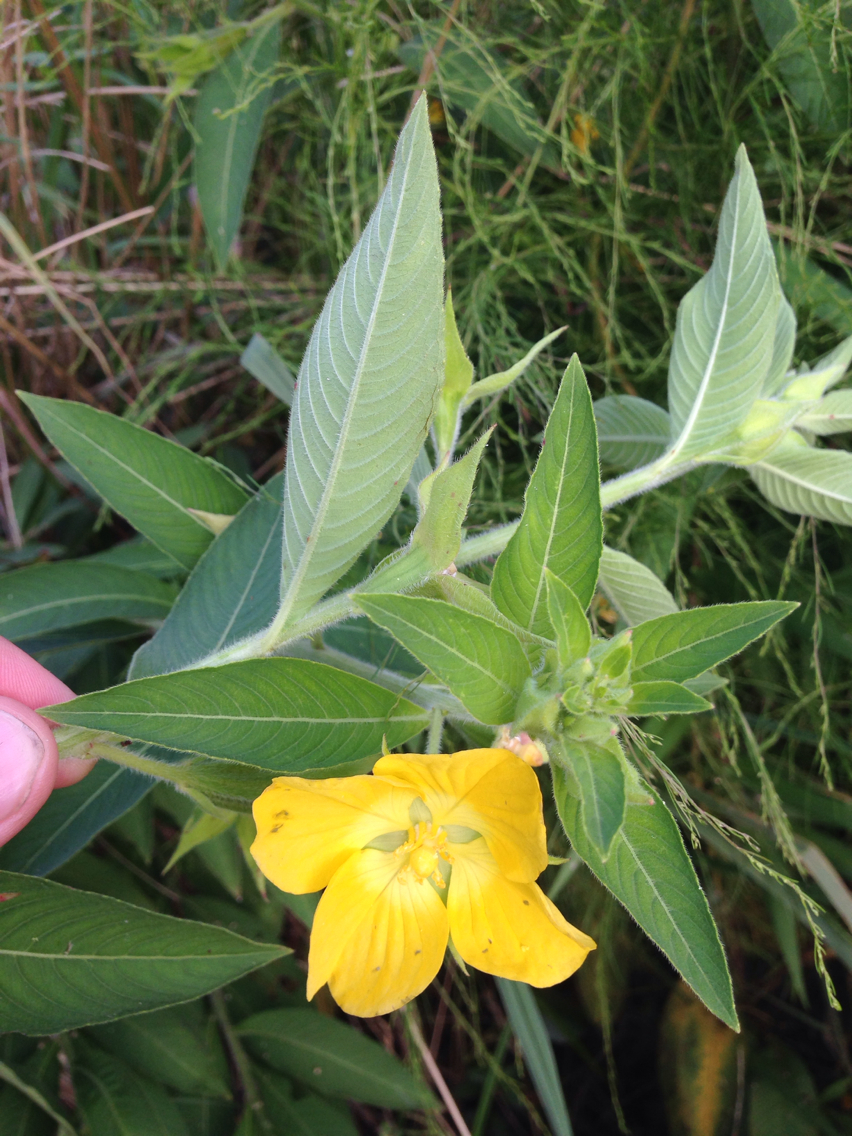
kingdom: Plantae
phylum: Tracheophyta
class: Magnoliopsida
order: Myrtales
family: Onagraceae
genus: Ludwigia
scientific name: Ludwigia peruviana
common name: Peruvian primrose-willow
